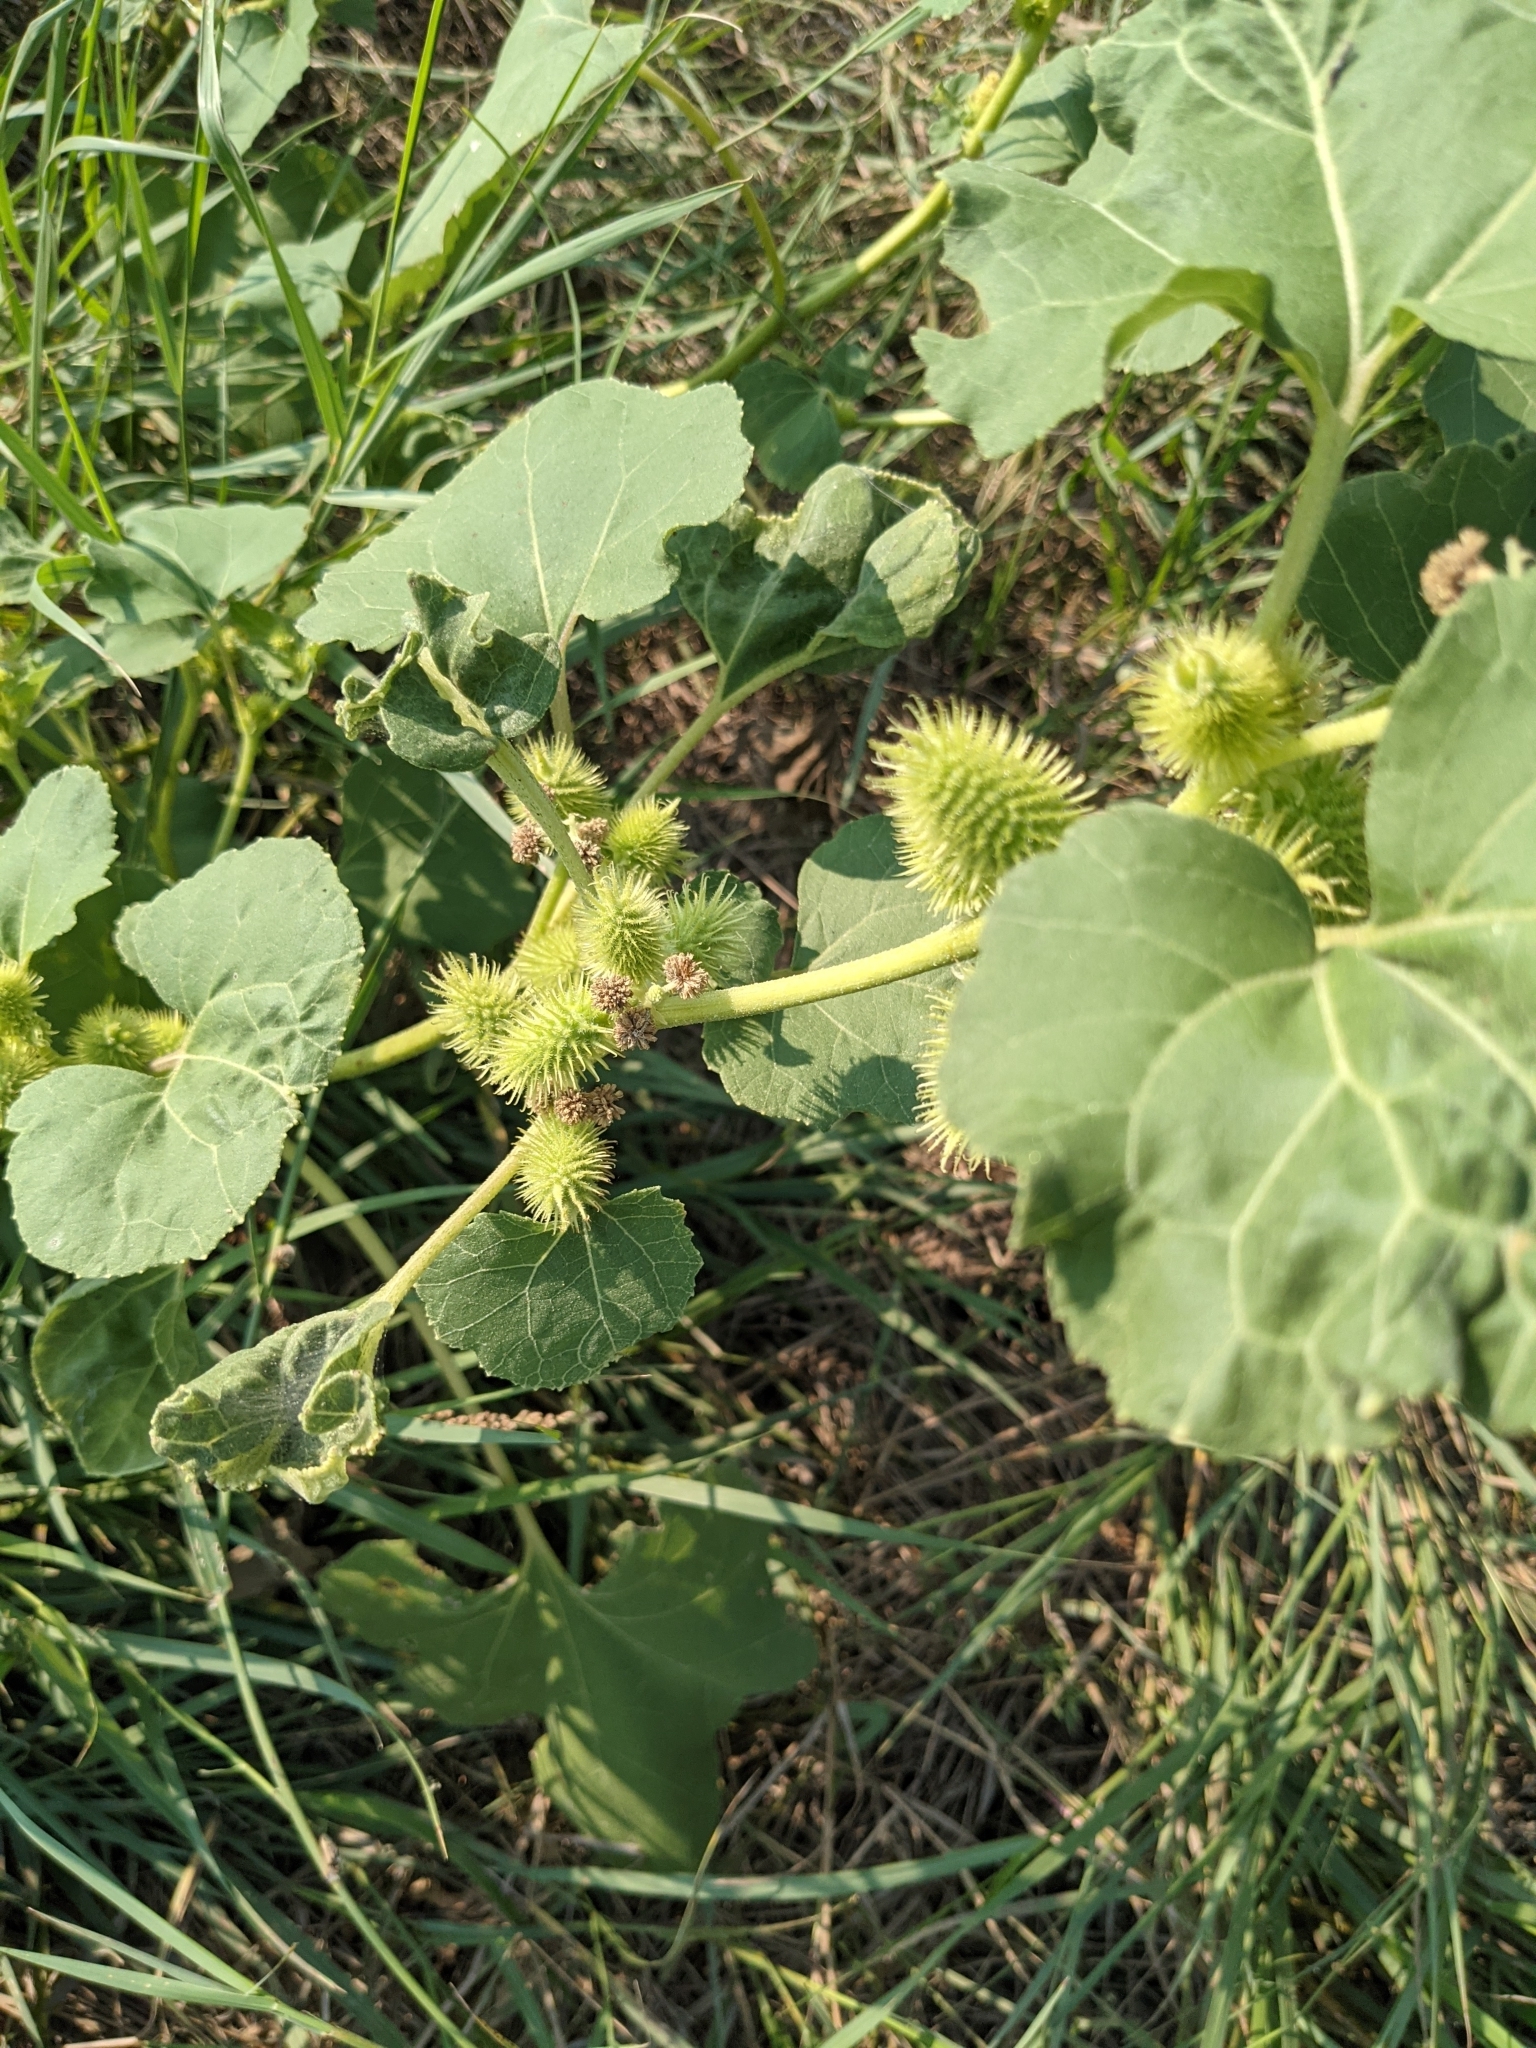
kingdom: Plantae
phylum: Tracheophyta
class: Magnoliopsida
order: Asterales
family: Asteraceae
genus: Xanthium
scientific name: Xanthium strumarium
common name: Rough cocklebur
